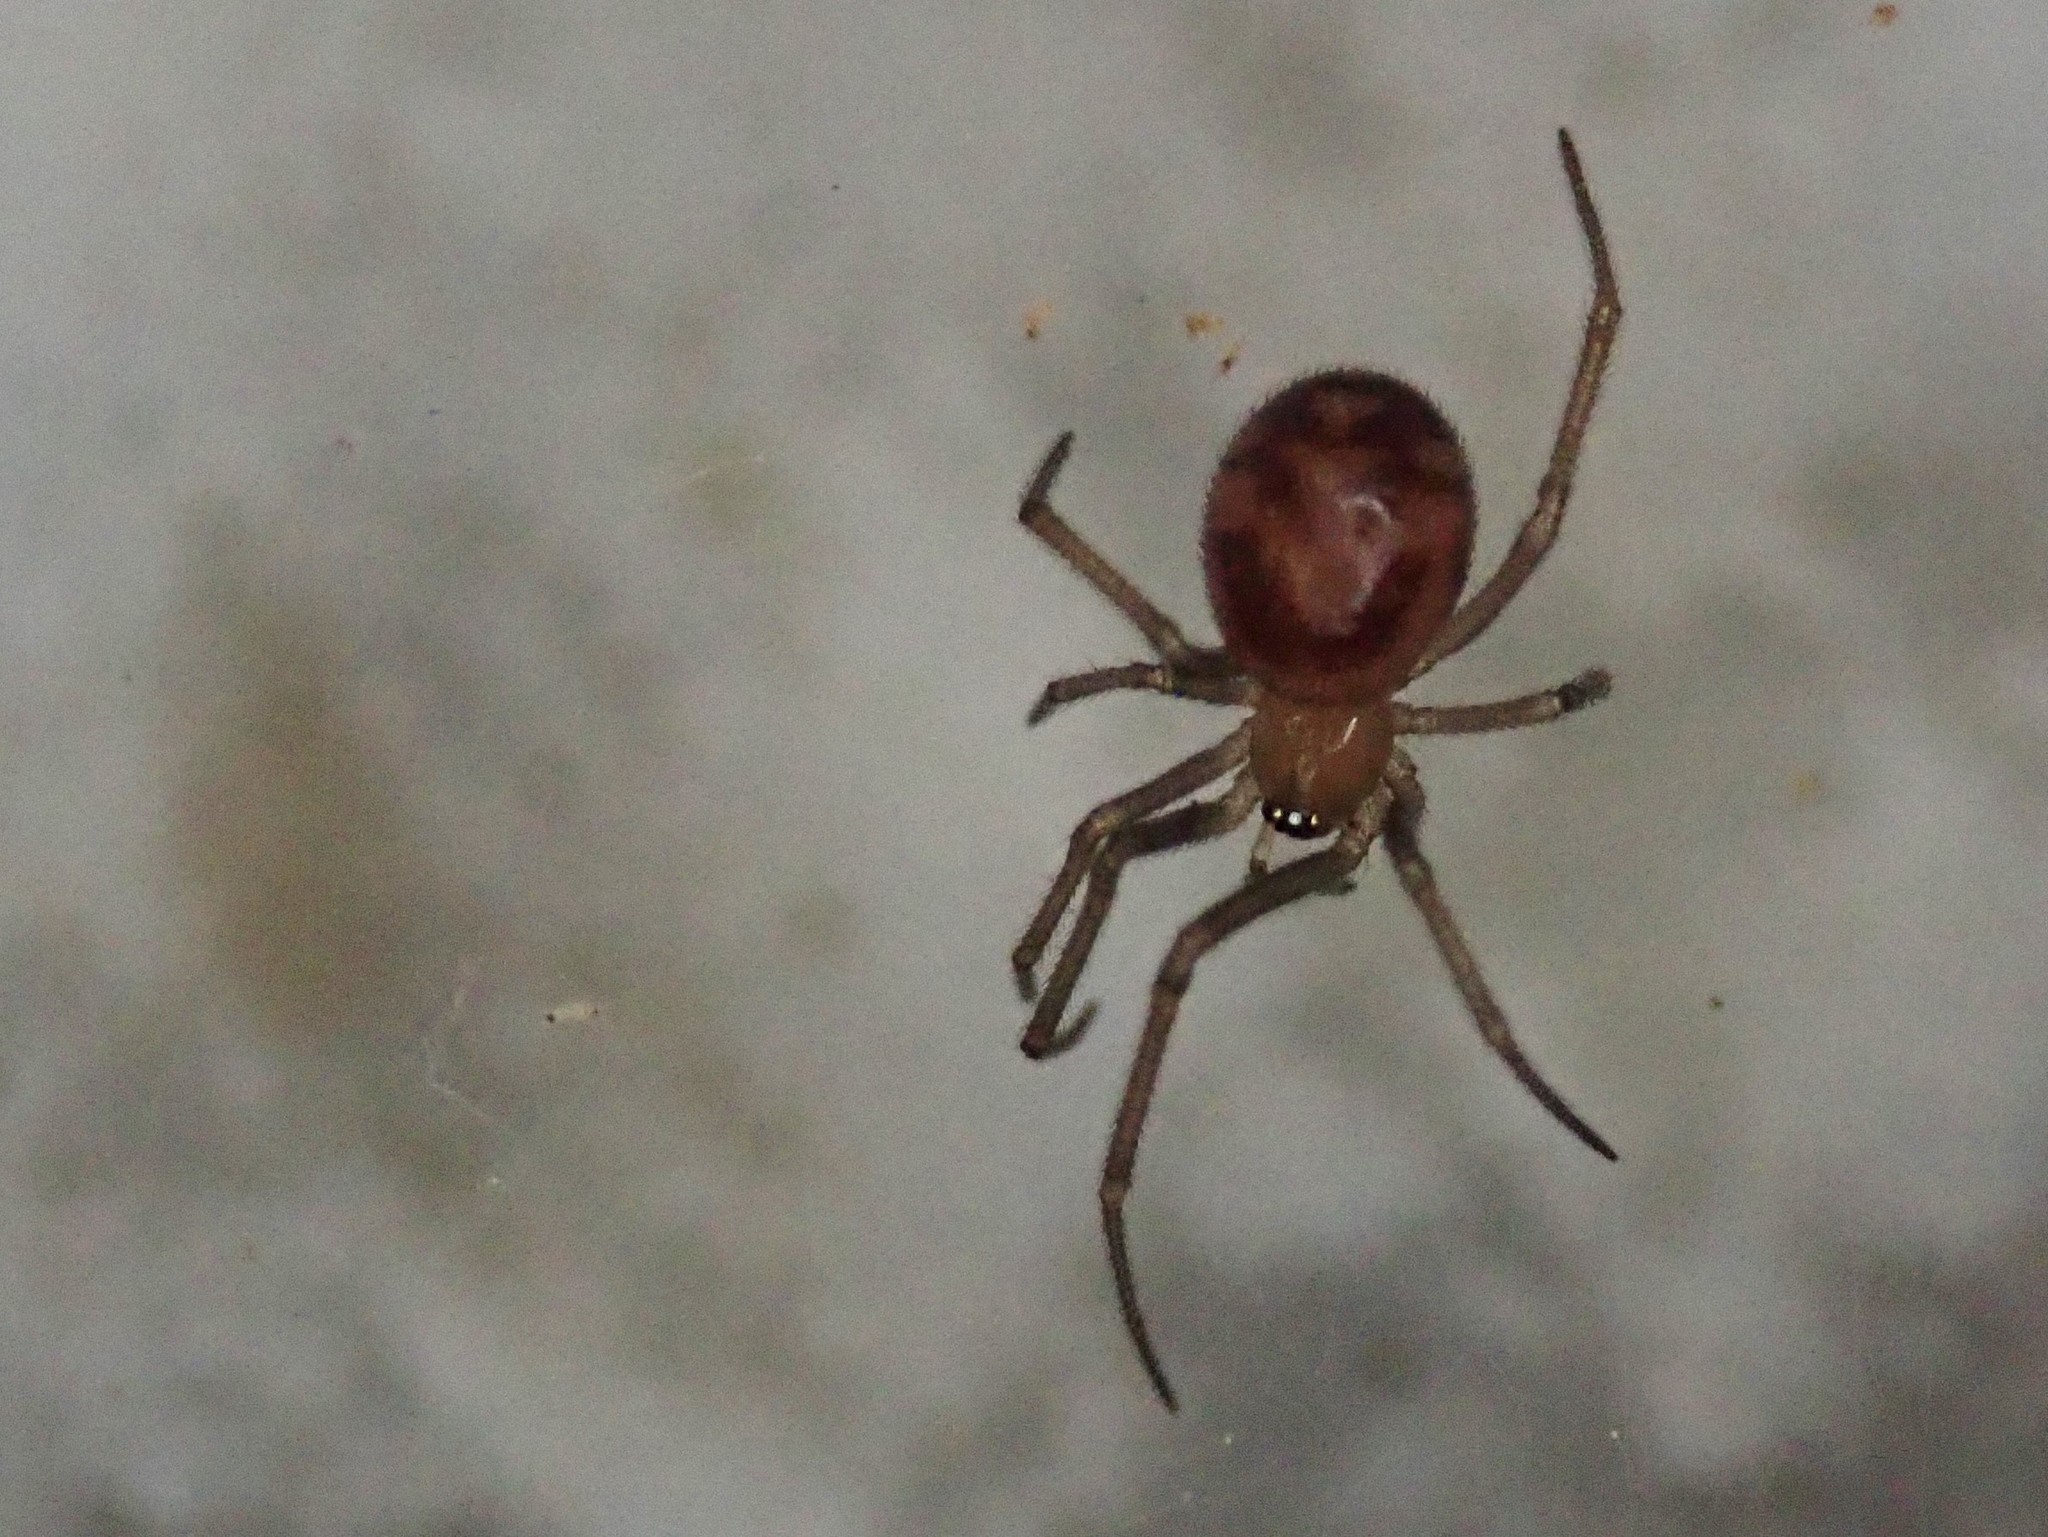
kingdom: Animalia
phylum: Arthropoda
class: Arachnida
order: Araneae
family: Theridiidae
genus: Steatoda
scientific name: Steatoda grossa
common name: False black widow
